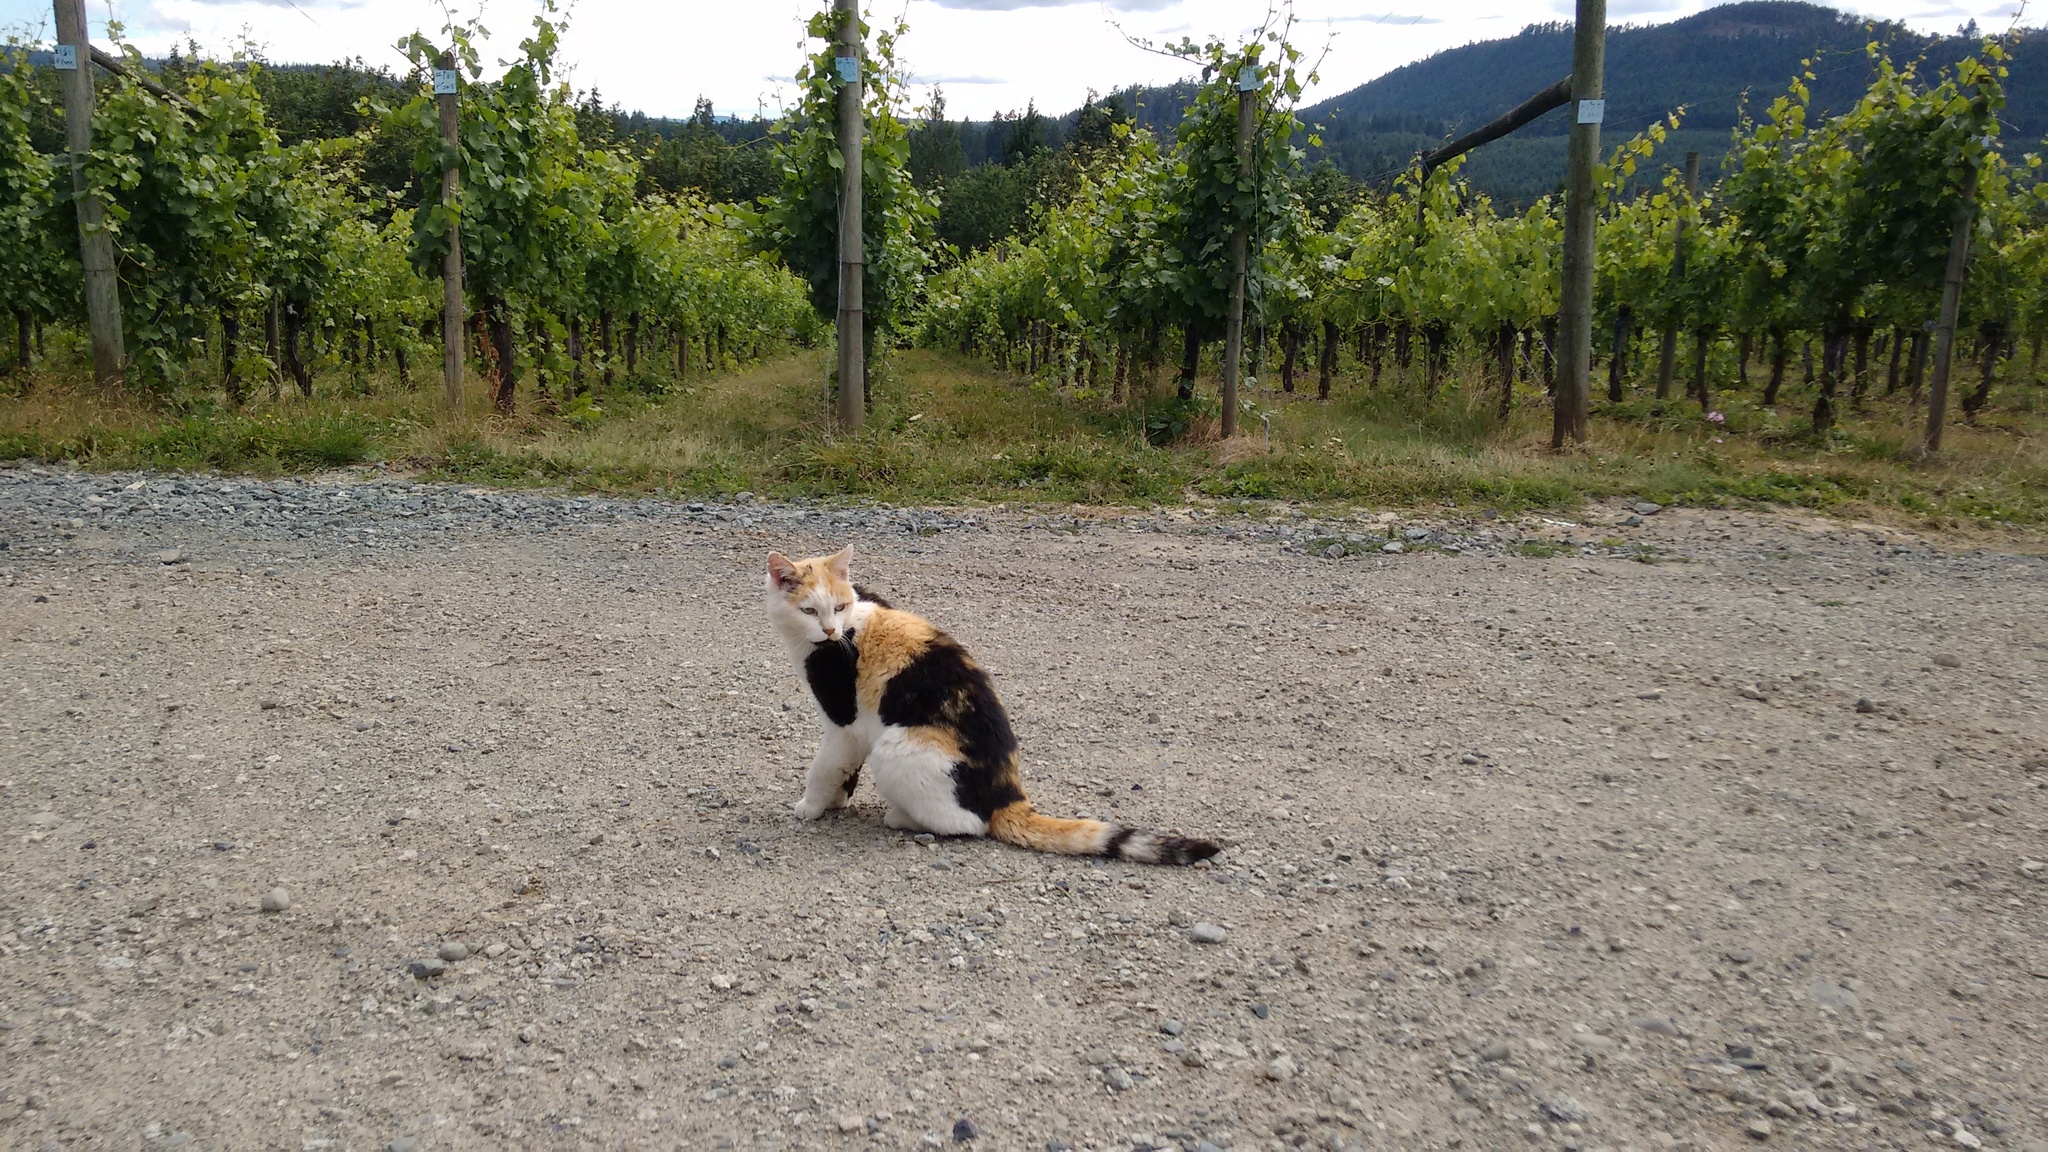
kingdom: Animalia
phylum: Chordata
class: Mammalia
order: Carnivora
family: Felidae
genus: Felis
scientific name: Felis catus
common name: Domestic cat
